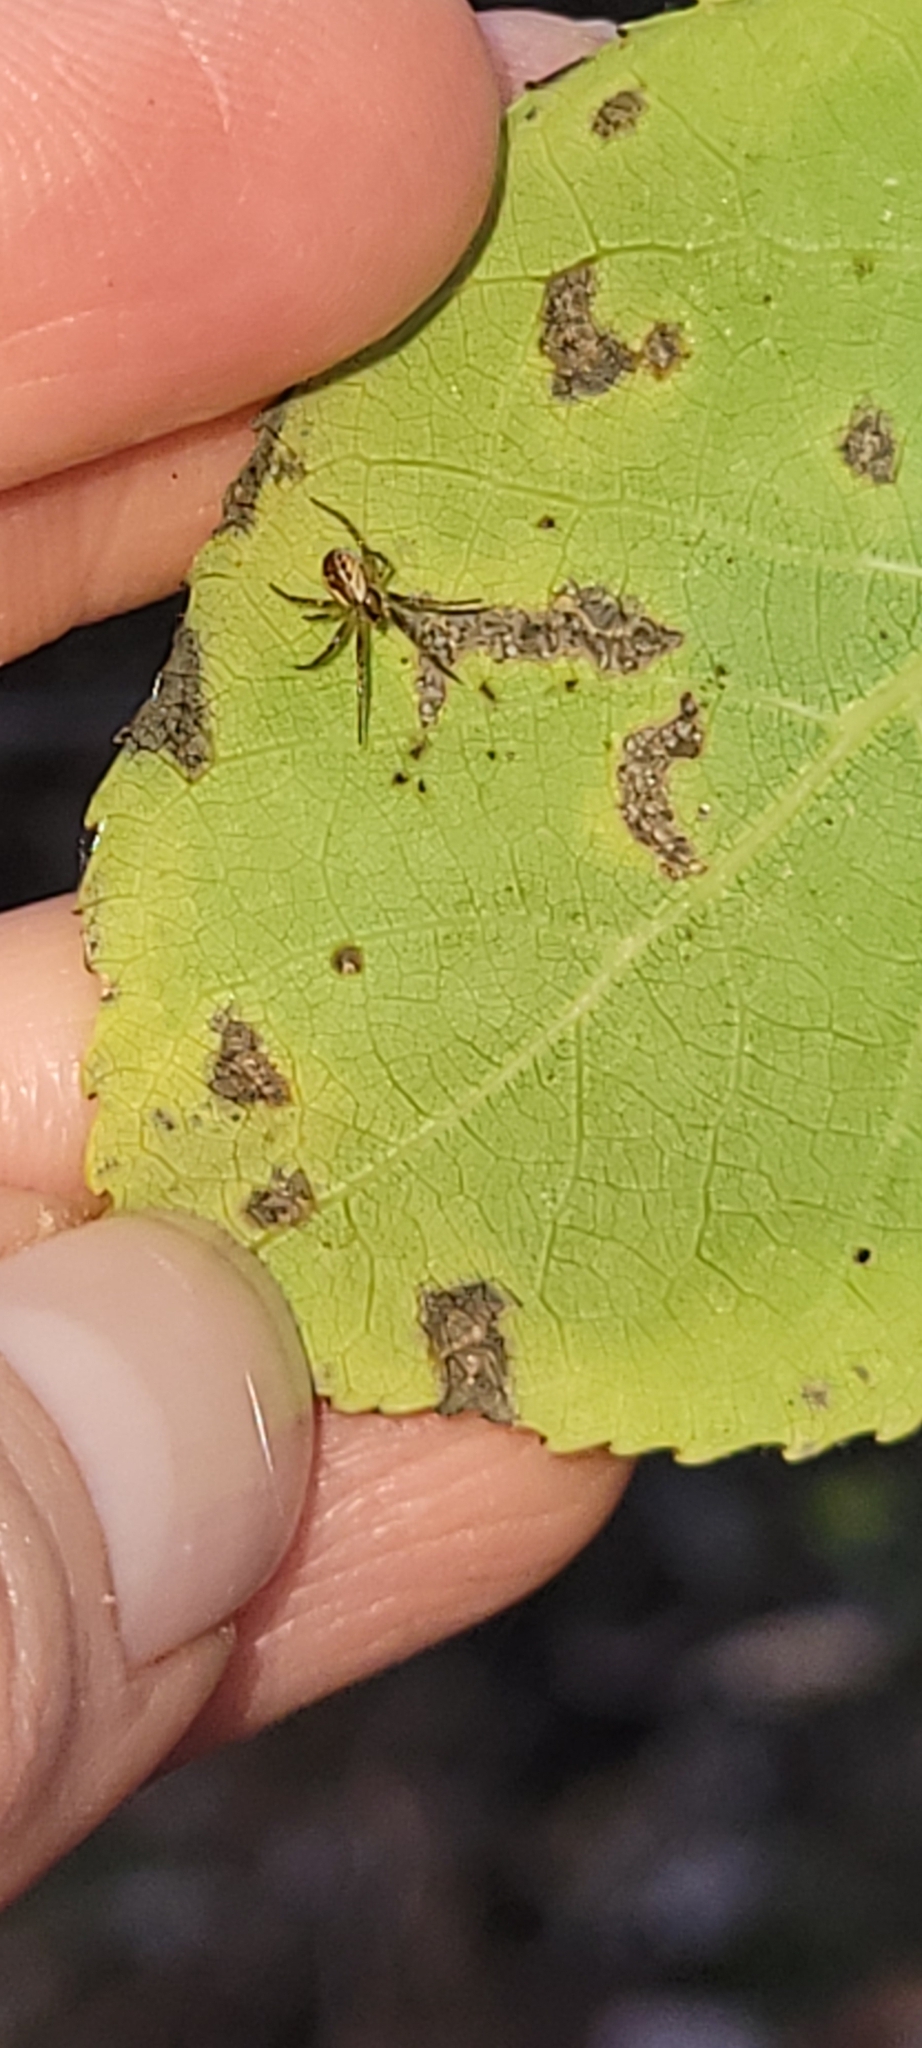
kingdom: Animalia
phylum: Arthropoda
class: Arachnida
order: Araneae
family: Araneidae
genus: Mangora
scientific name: Mangora placida
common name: Tuft-legged orbweaver
